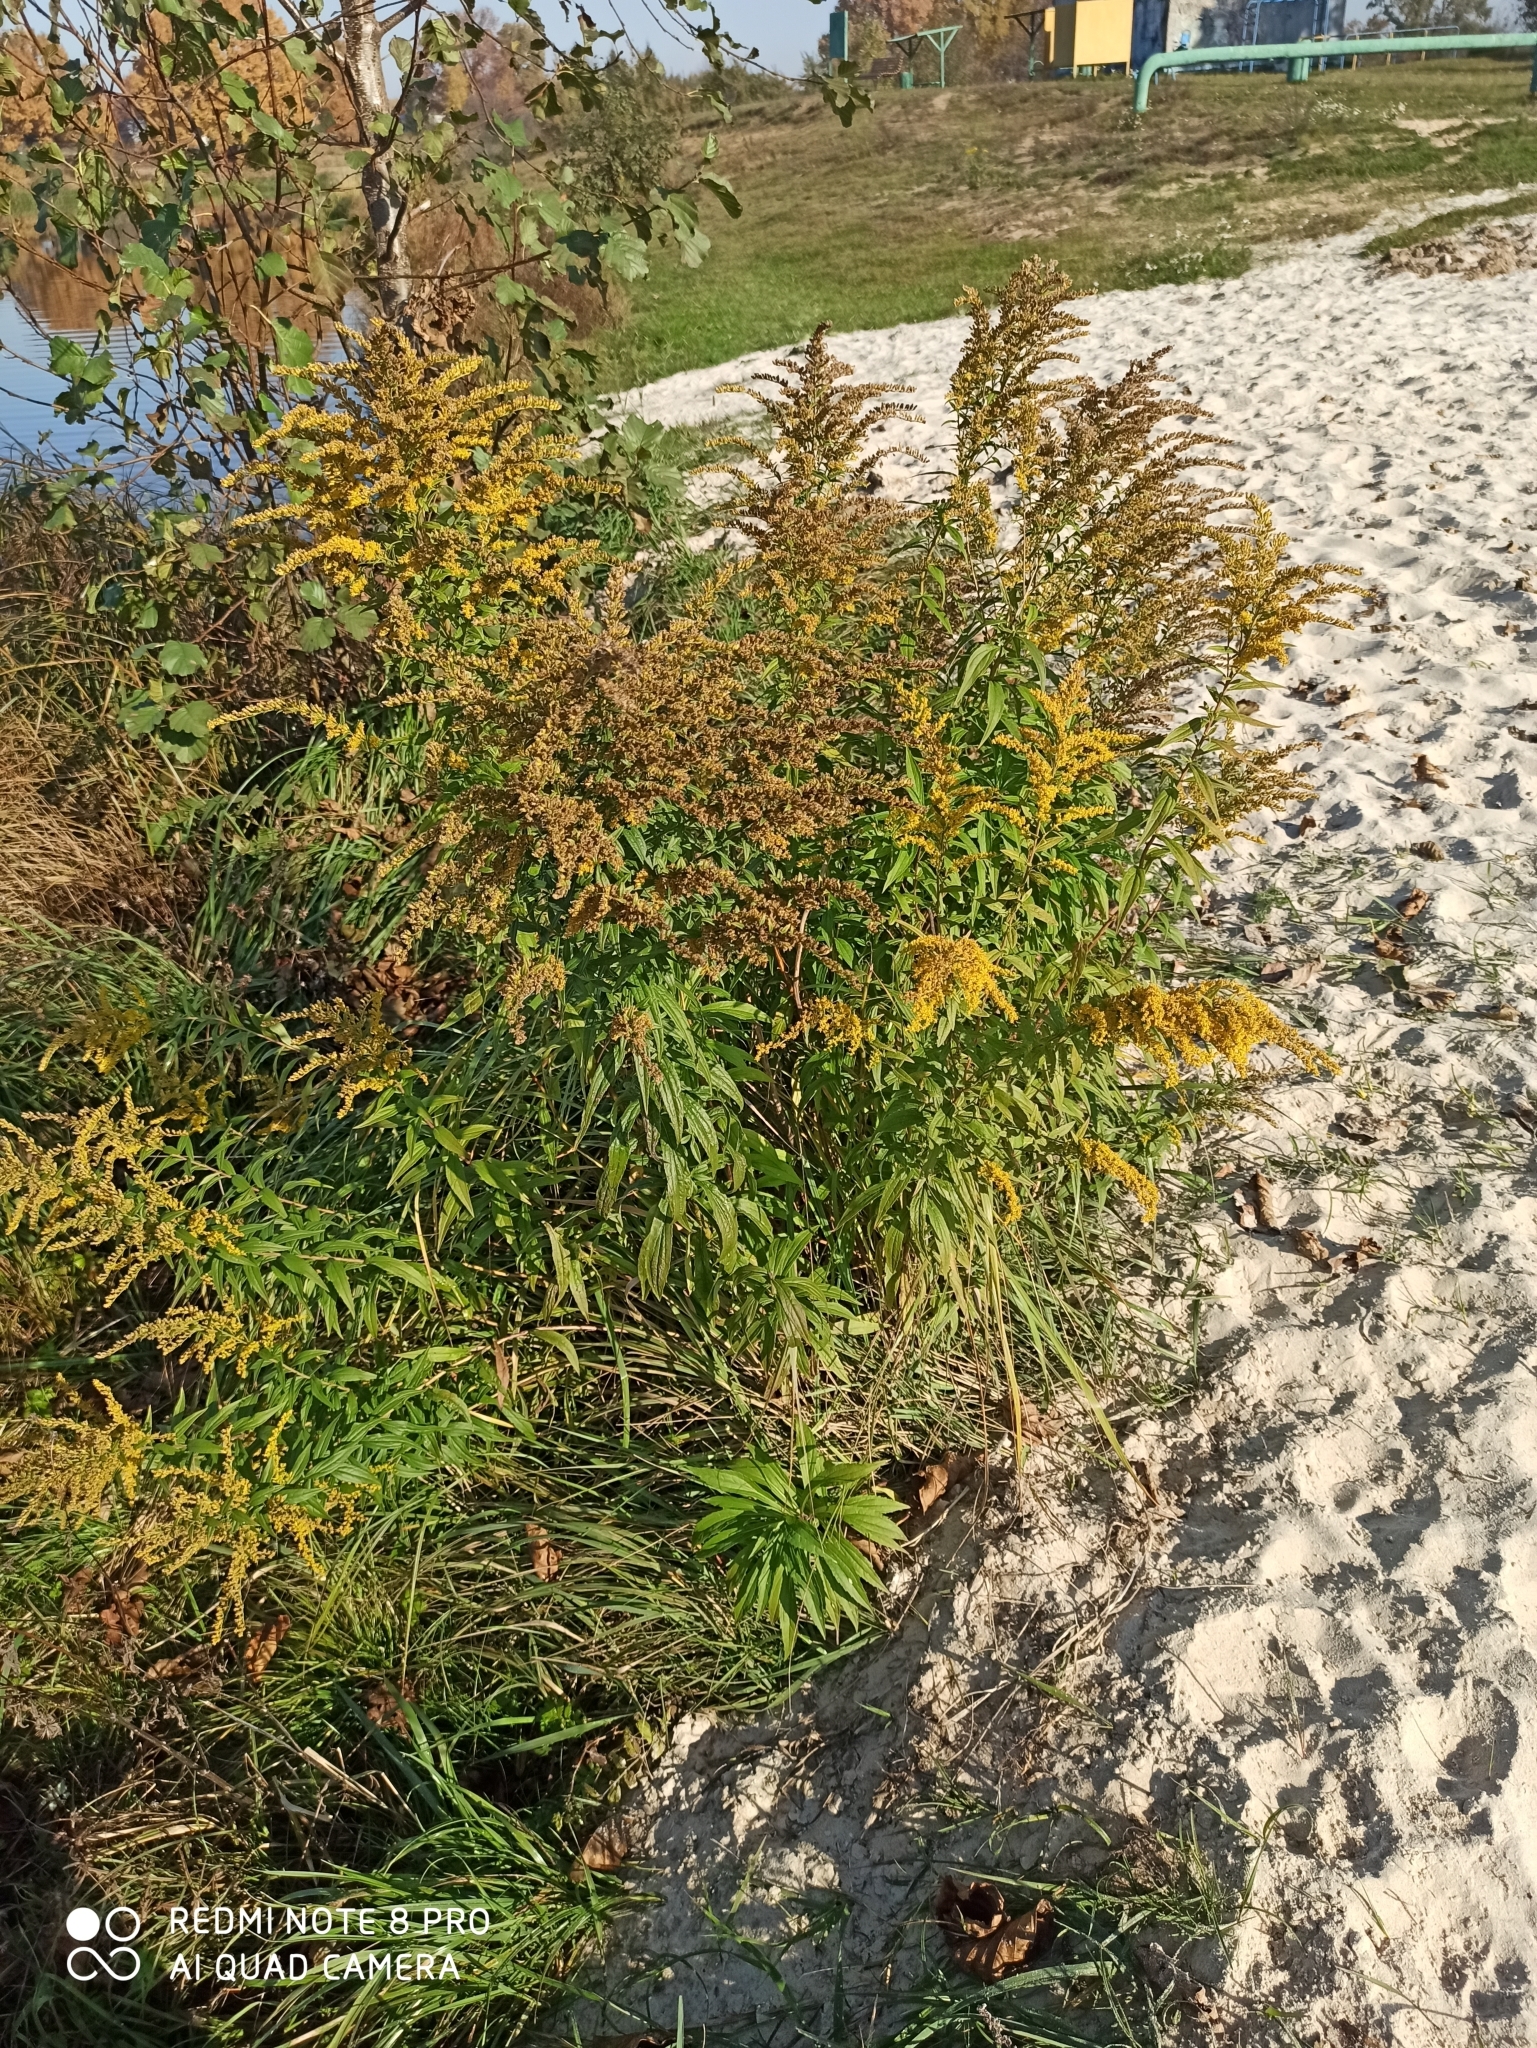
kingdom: Plantae
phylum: Tracheophyta
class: Magnoliopsida
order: Asterales
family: Asteraceae
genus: Solidago
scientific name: Solidago canadensis
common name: Canada goldenrod
